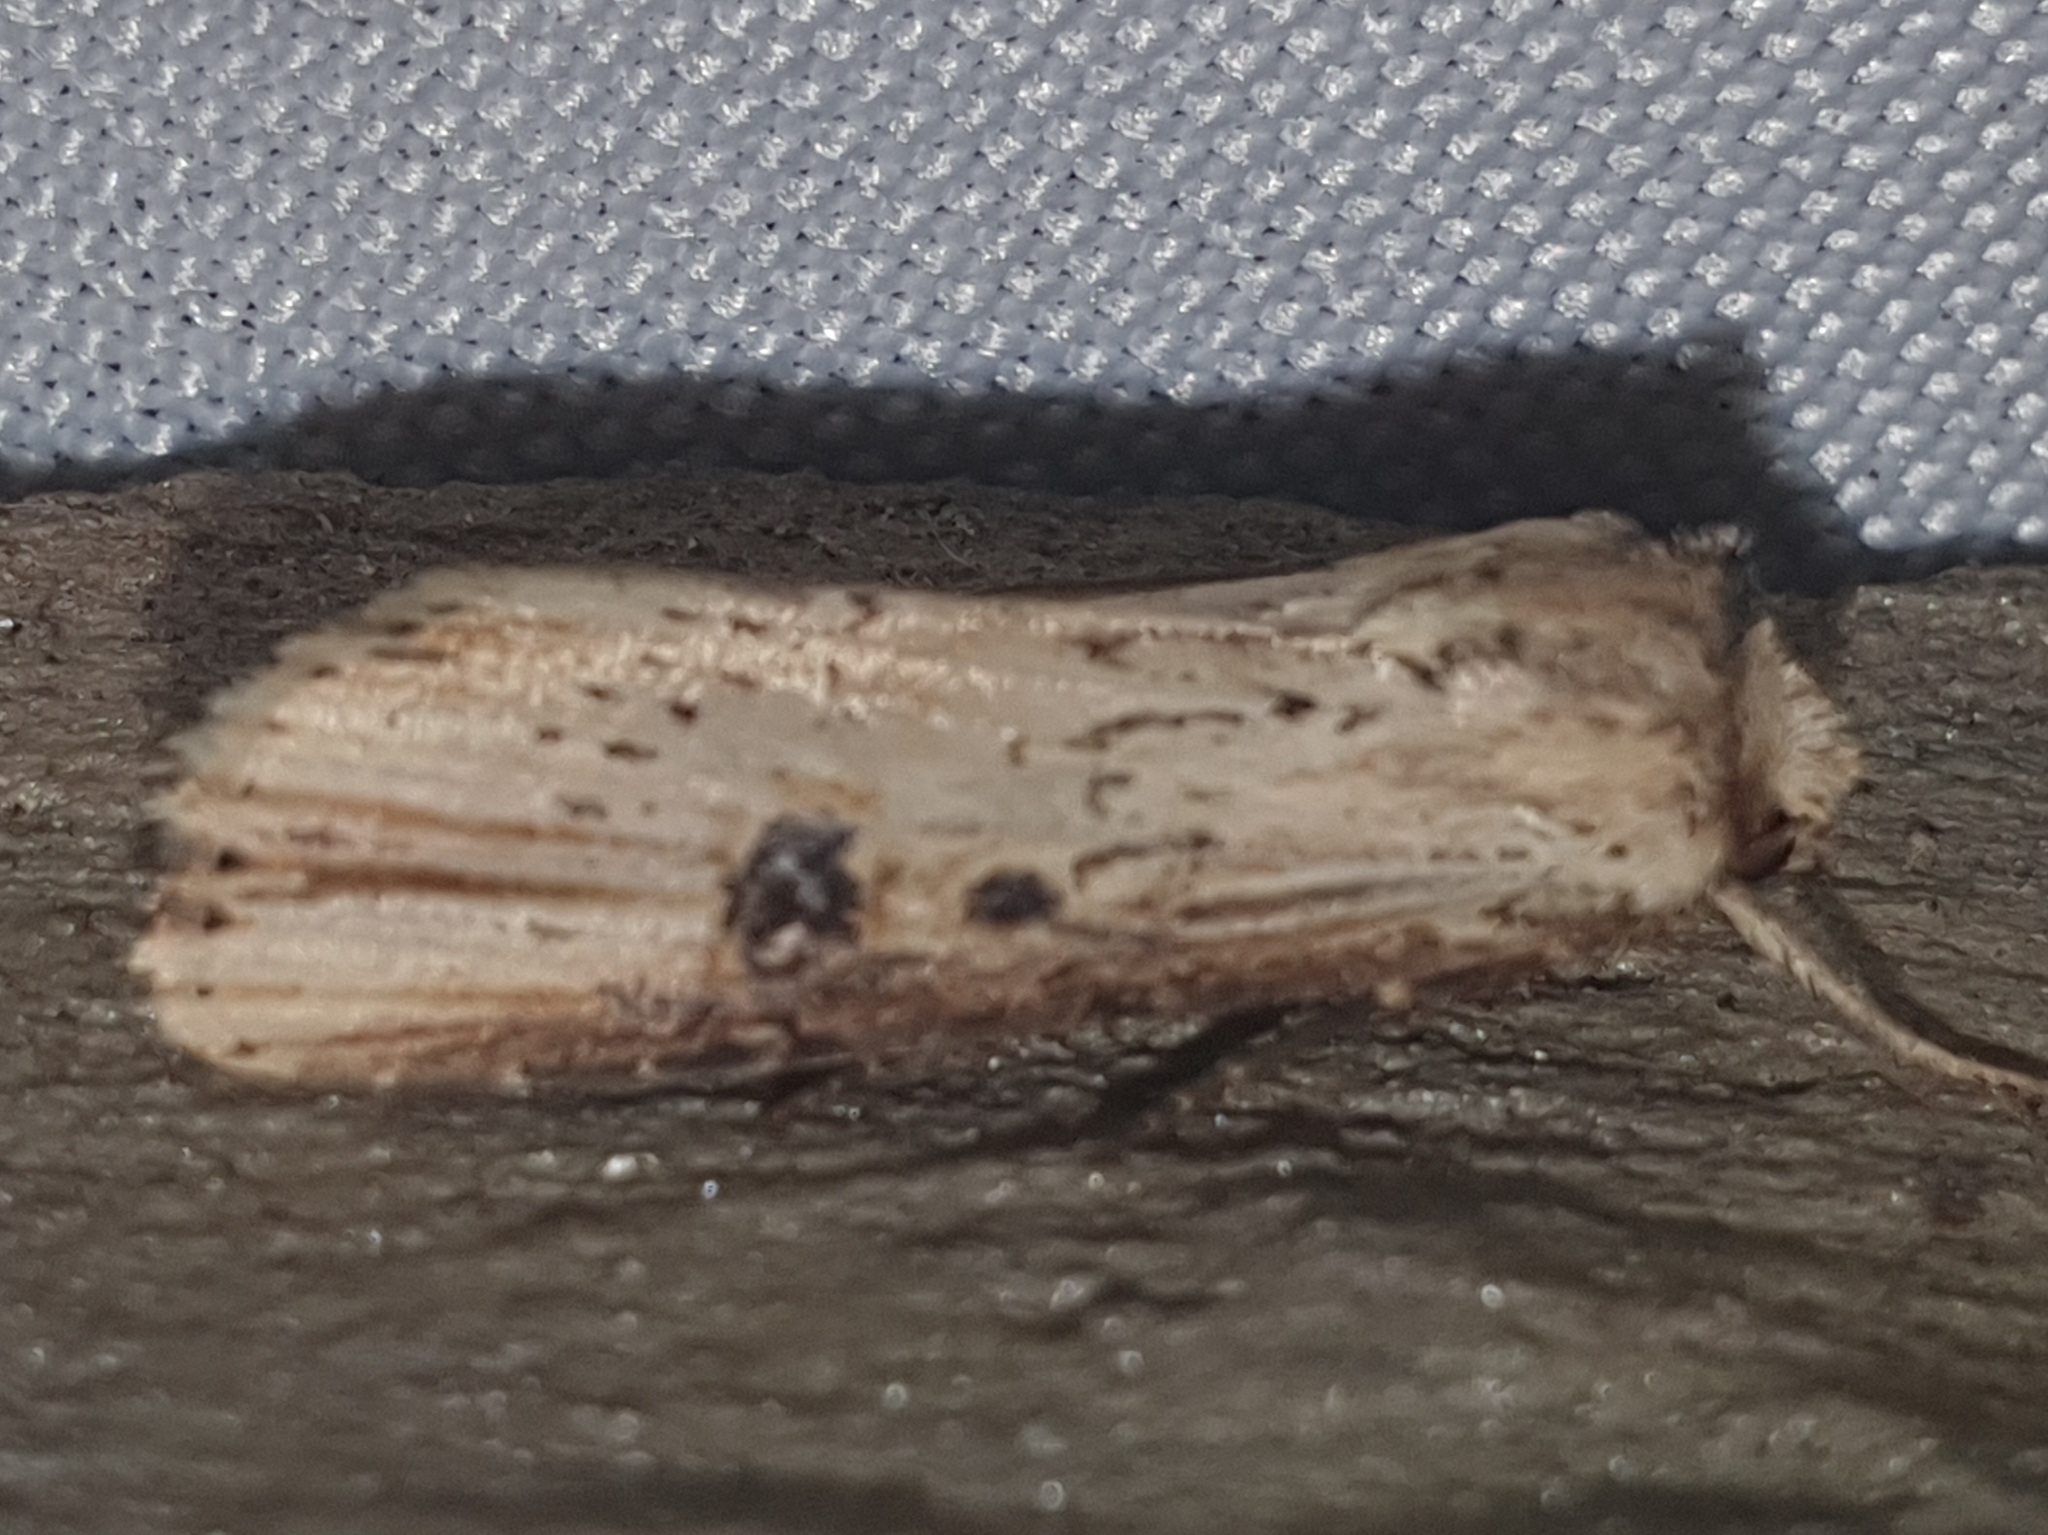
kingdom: Animalia
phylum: Arthropoda
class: Insecta
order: Lepidoptera
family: Noctuidae
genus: Axylia
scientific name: Axylia putris
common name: Flame
